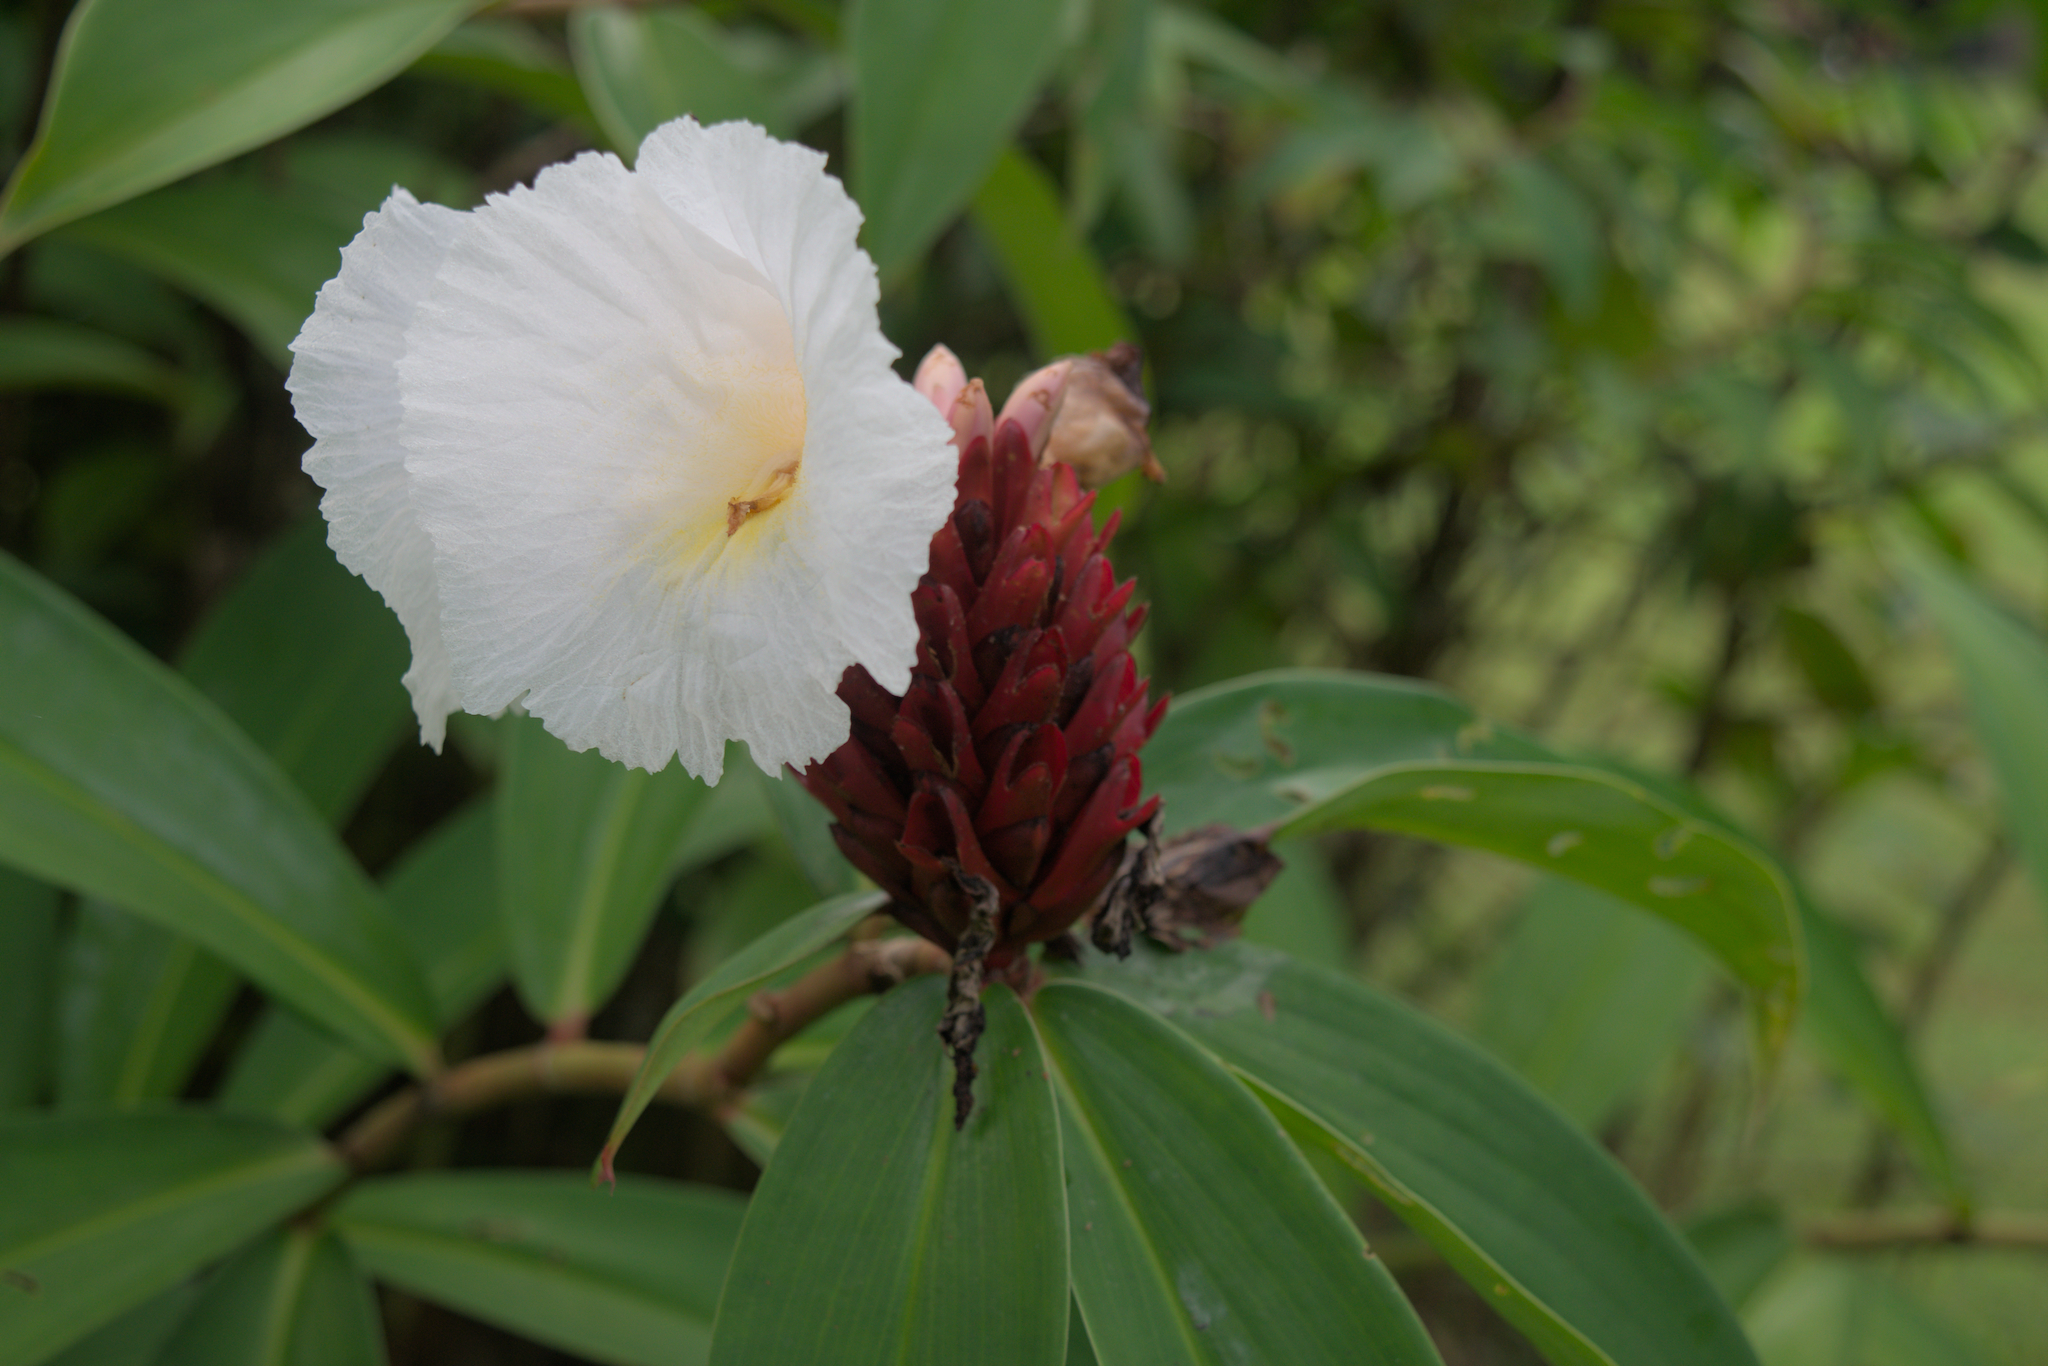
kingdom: Plantae
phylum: Tracheophyta
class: Liliopsida
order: Zingiberales
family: Costaceae
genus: Hellenia
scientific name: Hellenia speciosa
